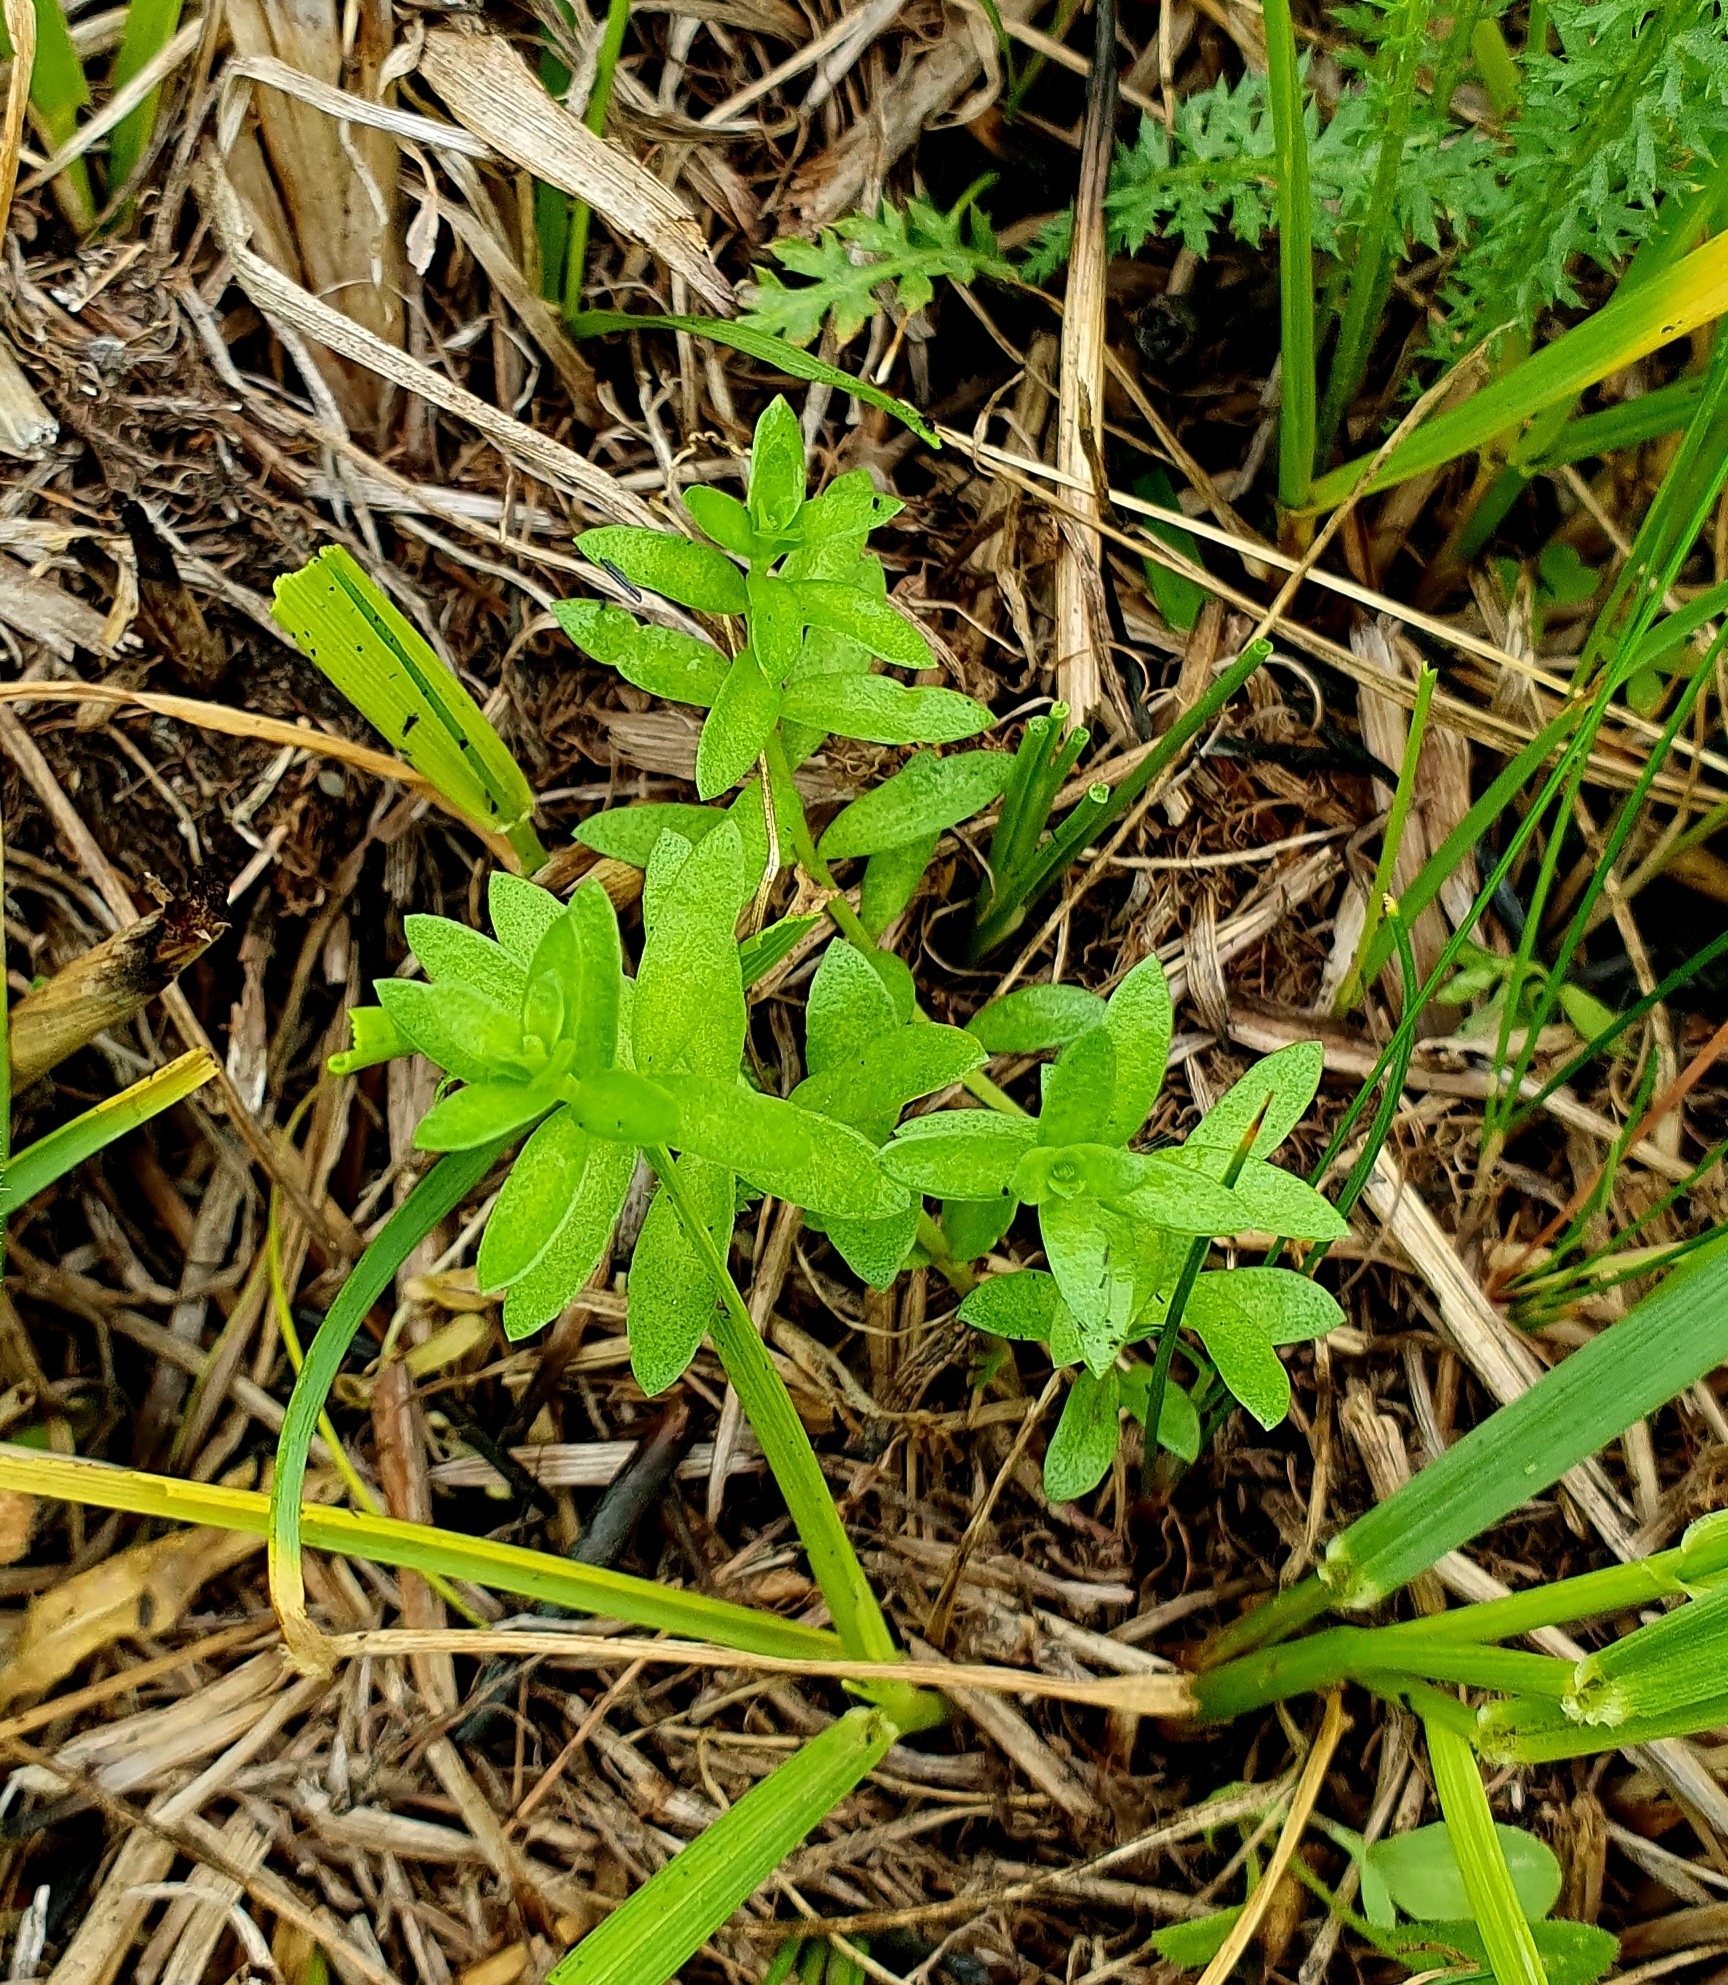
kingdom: Plantae
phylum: Tracheophyta
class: Magnoliopsida
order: Ericales
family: Primulaceae
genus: Lysimachia
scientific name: Lysimachia maritima
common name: Sea milkwort
